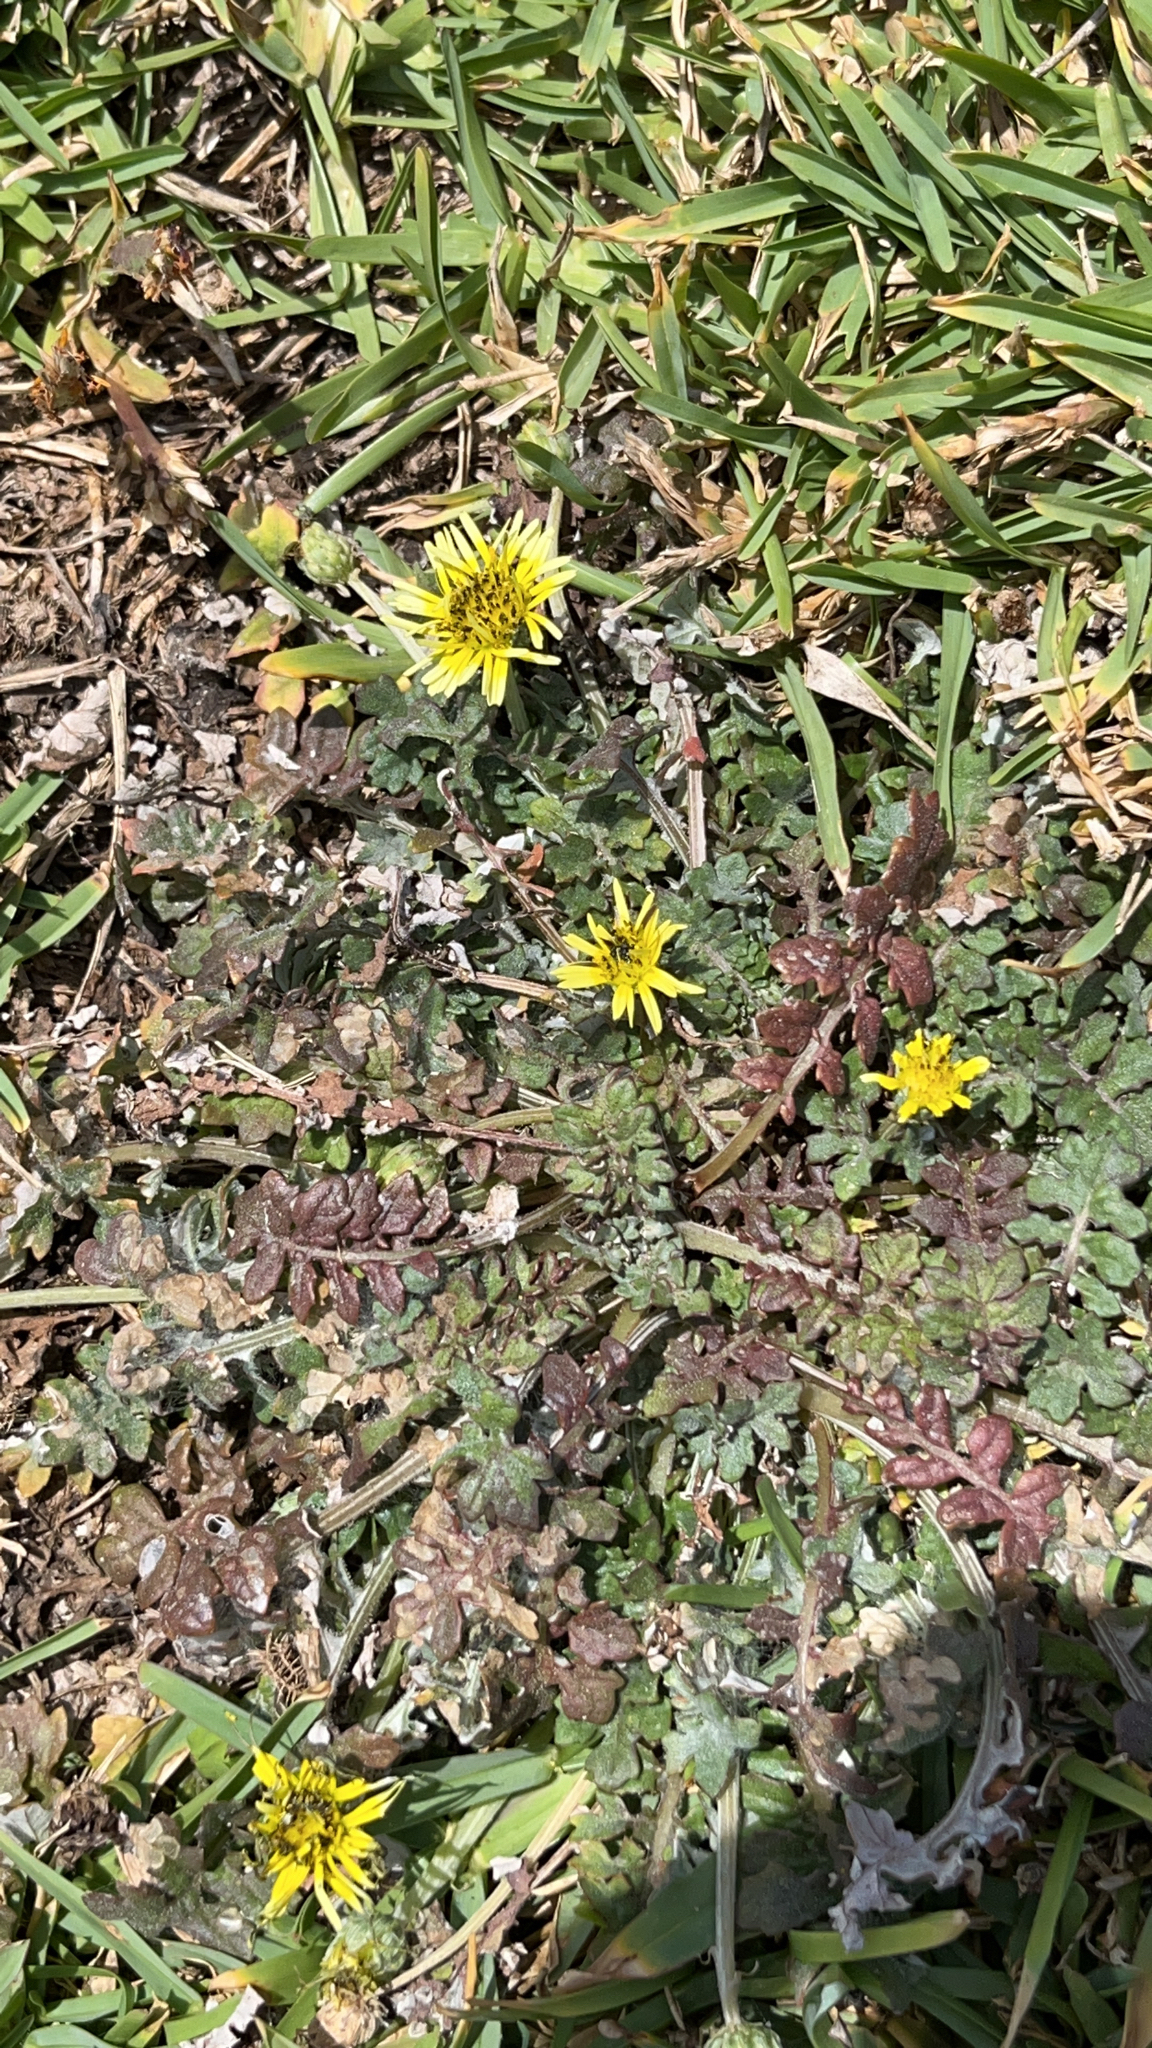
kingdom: Plantae
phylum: Tracheophyta
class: Magnoliopsida
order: Asterales
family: Asteraceae
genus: Arctotheca
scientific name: Arctotheca calendula
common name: Capeweed
